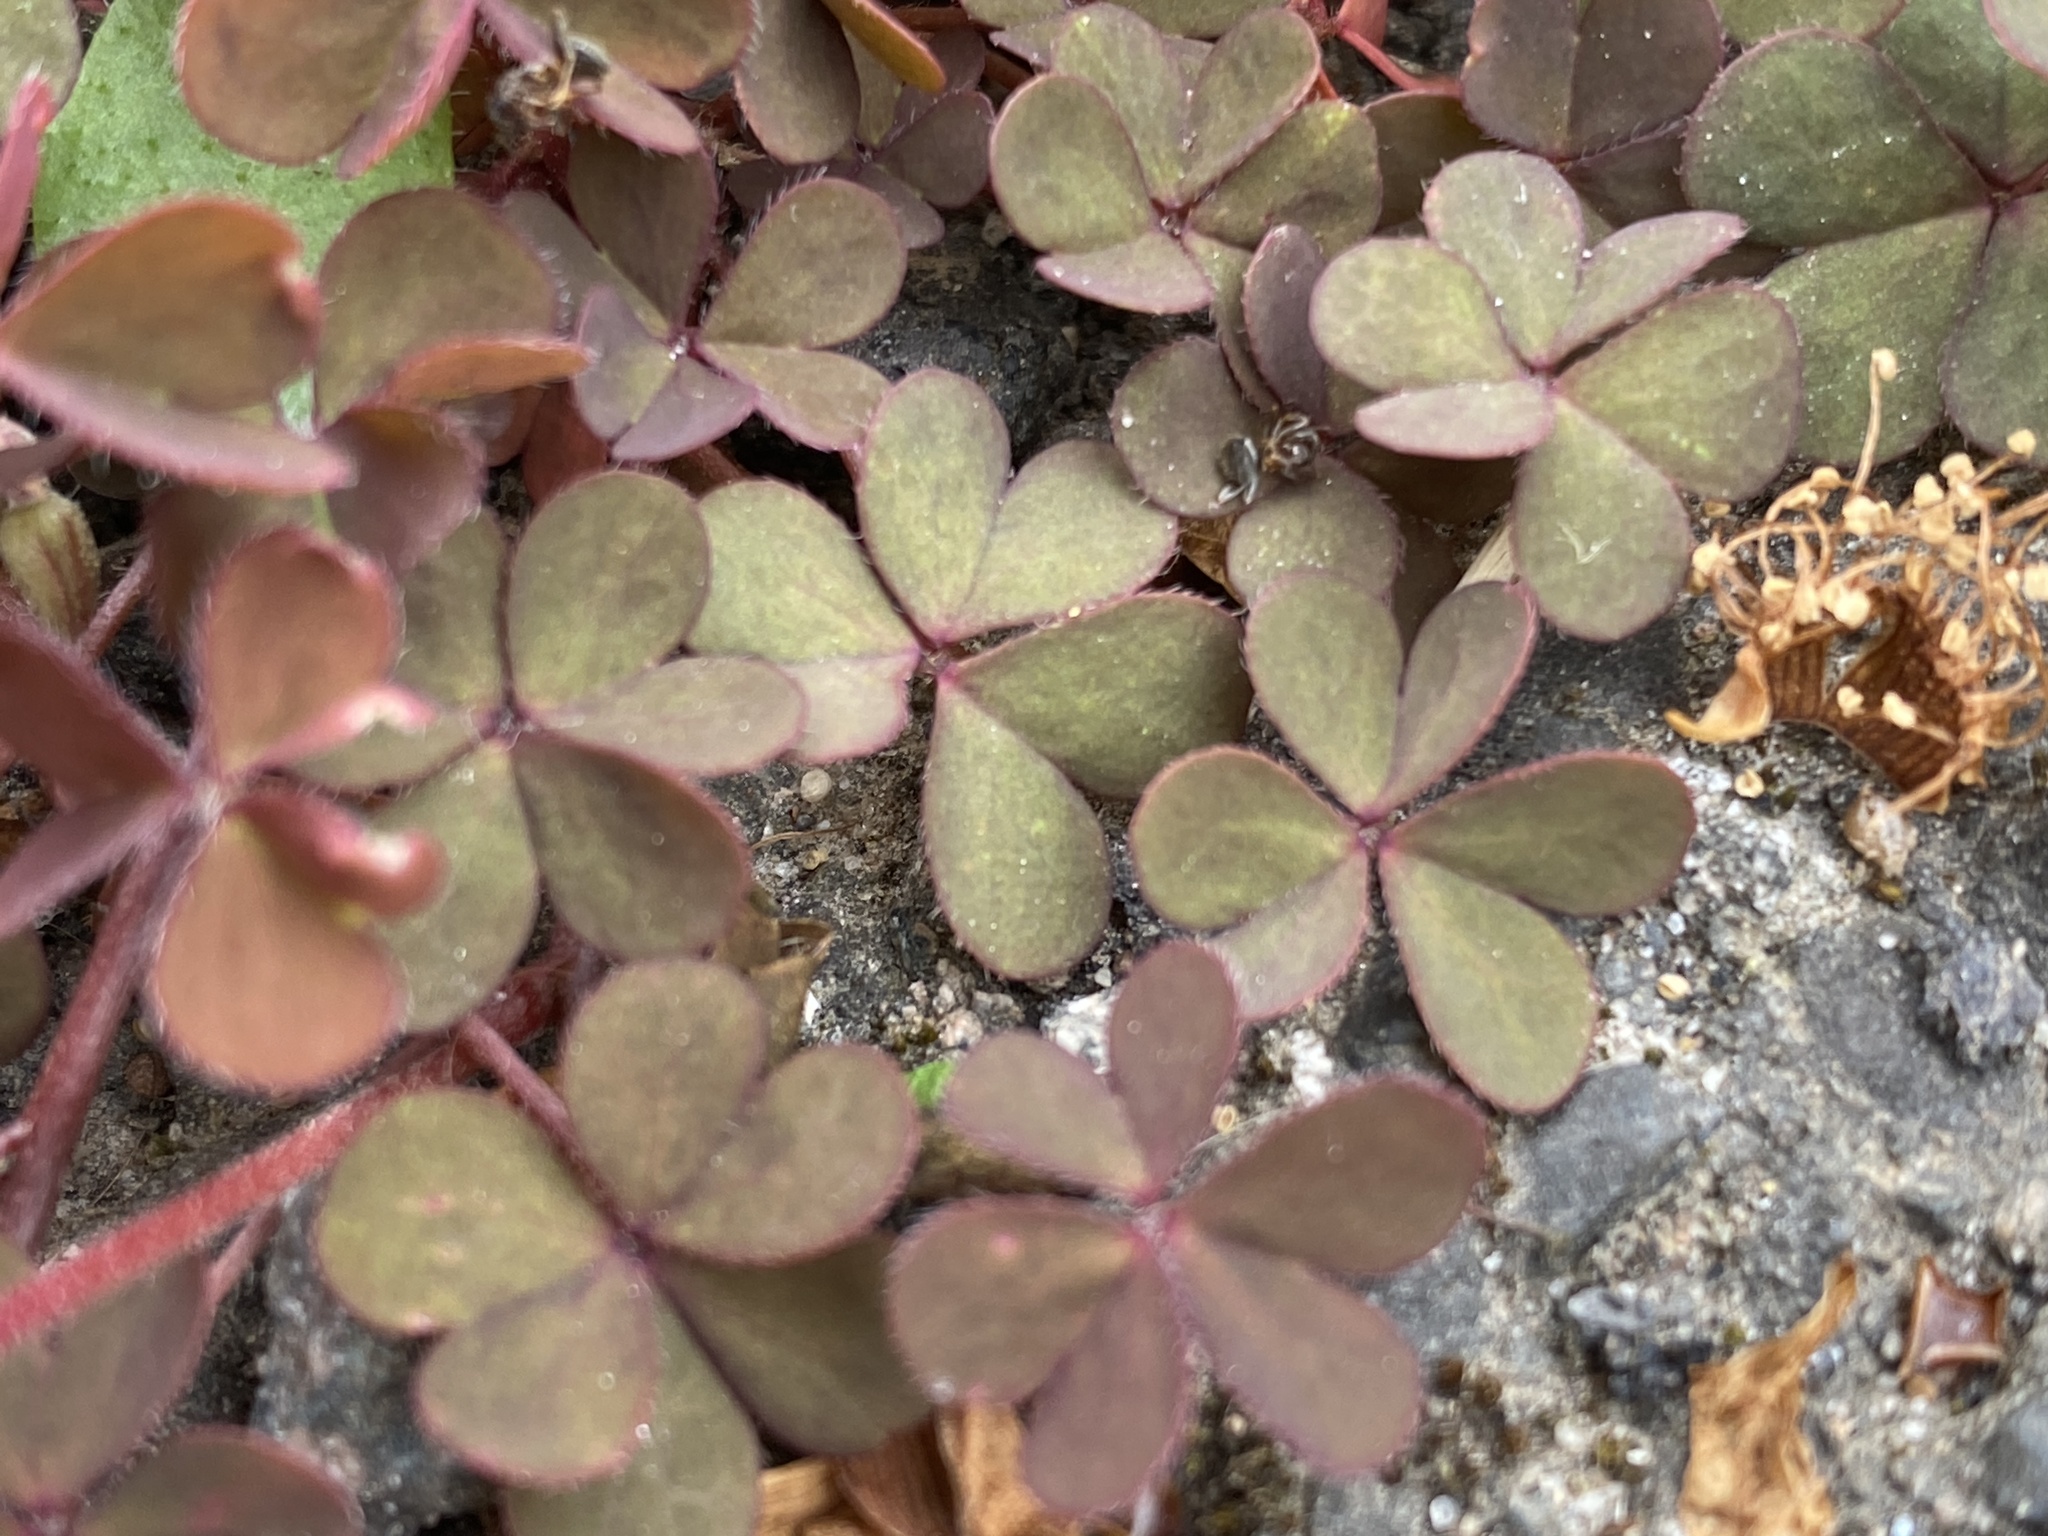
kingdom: Plantae
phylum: Tracheophyta
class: Magnoliopsida
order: Oxalidales
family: Oxalidaceae
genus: Oxalis
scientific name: Oxalis corniculata
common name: Procumbent yellow-sorrel
